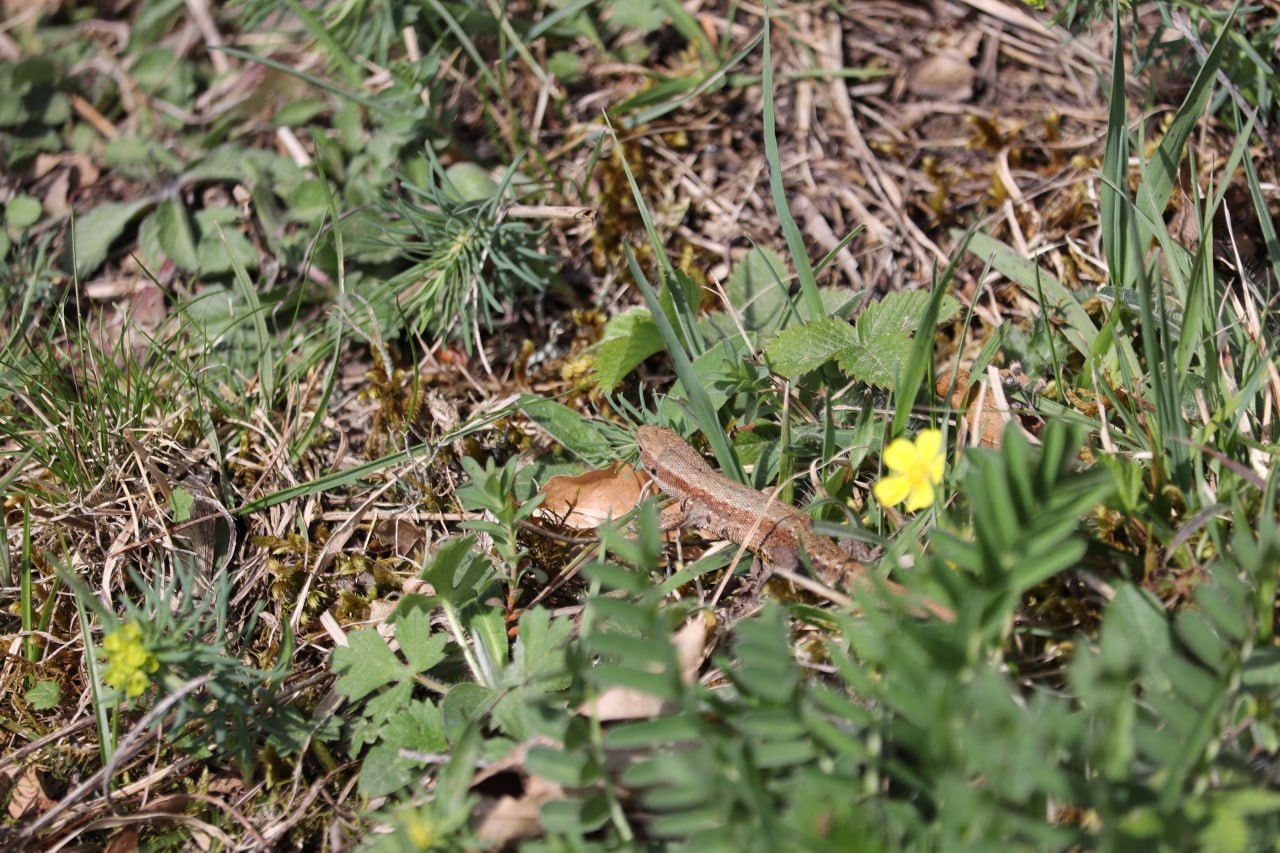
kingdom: Animalia
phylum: Chordata
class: Squamata
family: Lacertidae
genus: Zootoca
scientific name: Zootoca vivipara
